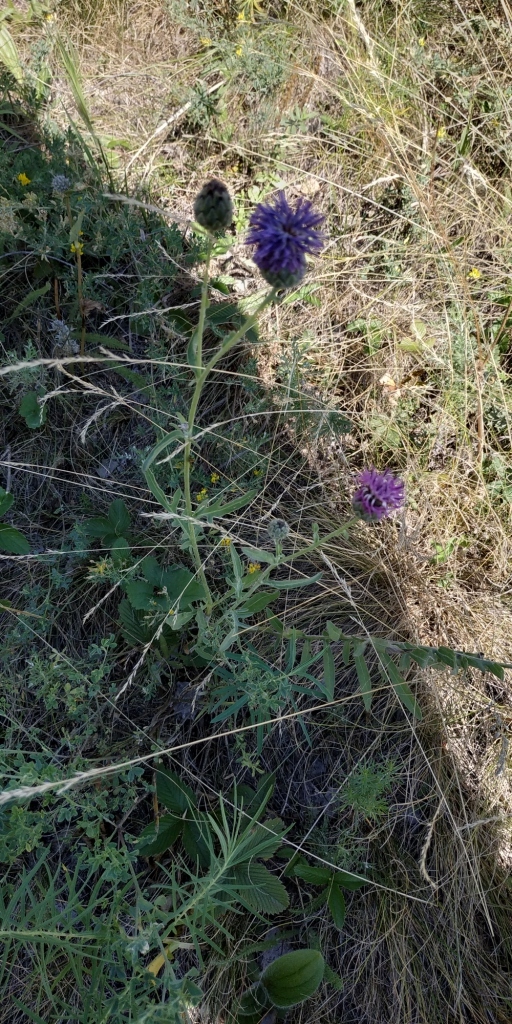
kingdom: Plantae
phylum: Tracheophyta
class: Magnoliopsida
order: Asterales
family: Asteraceae
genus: Centaurea
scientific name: Centaurea scabiosa
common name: Greater knapweed
